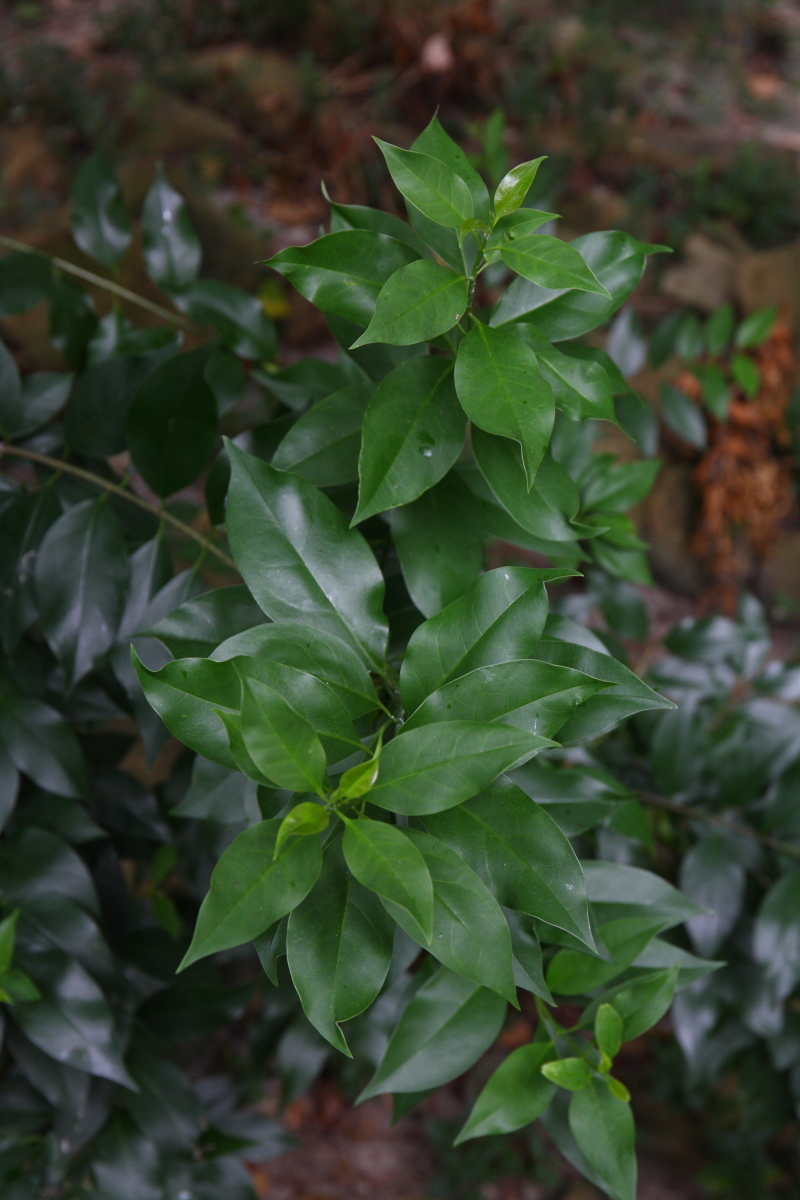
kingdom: Plantae
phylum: Tracheophyta
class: Magnoliopsida
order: Lamiales
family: Oleaceae
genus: Ligustrum
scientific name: Ligustrum lucidum
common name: Glossy privet
